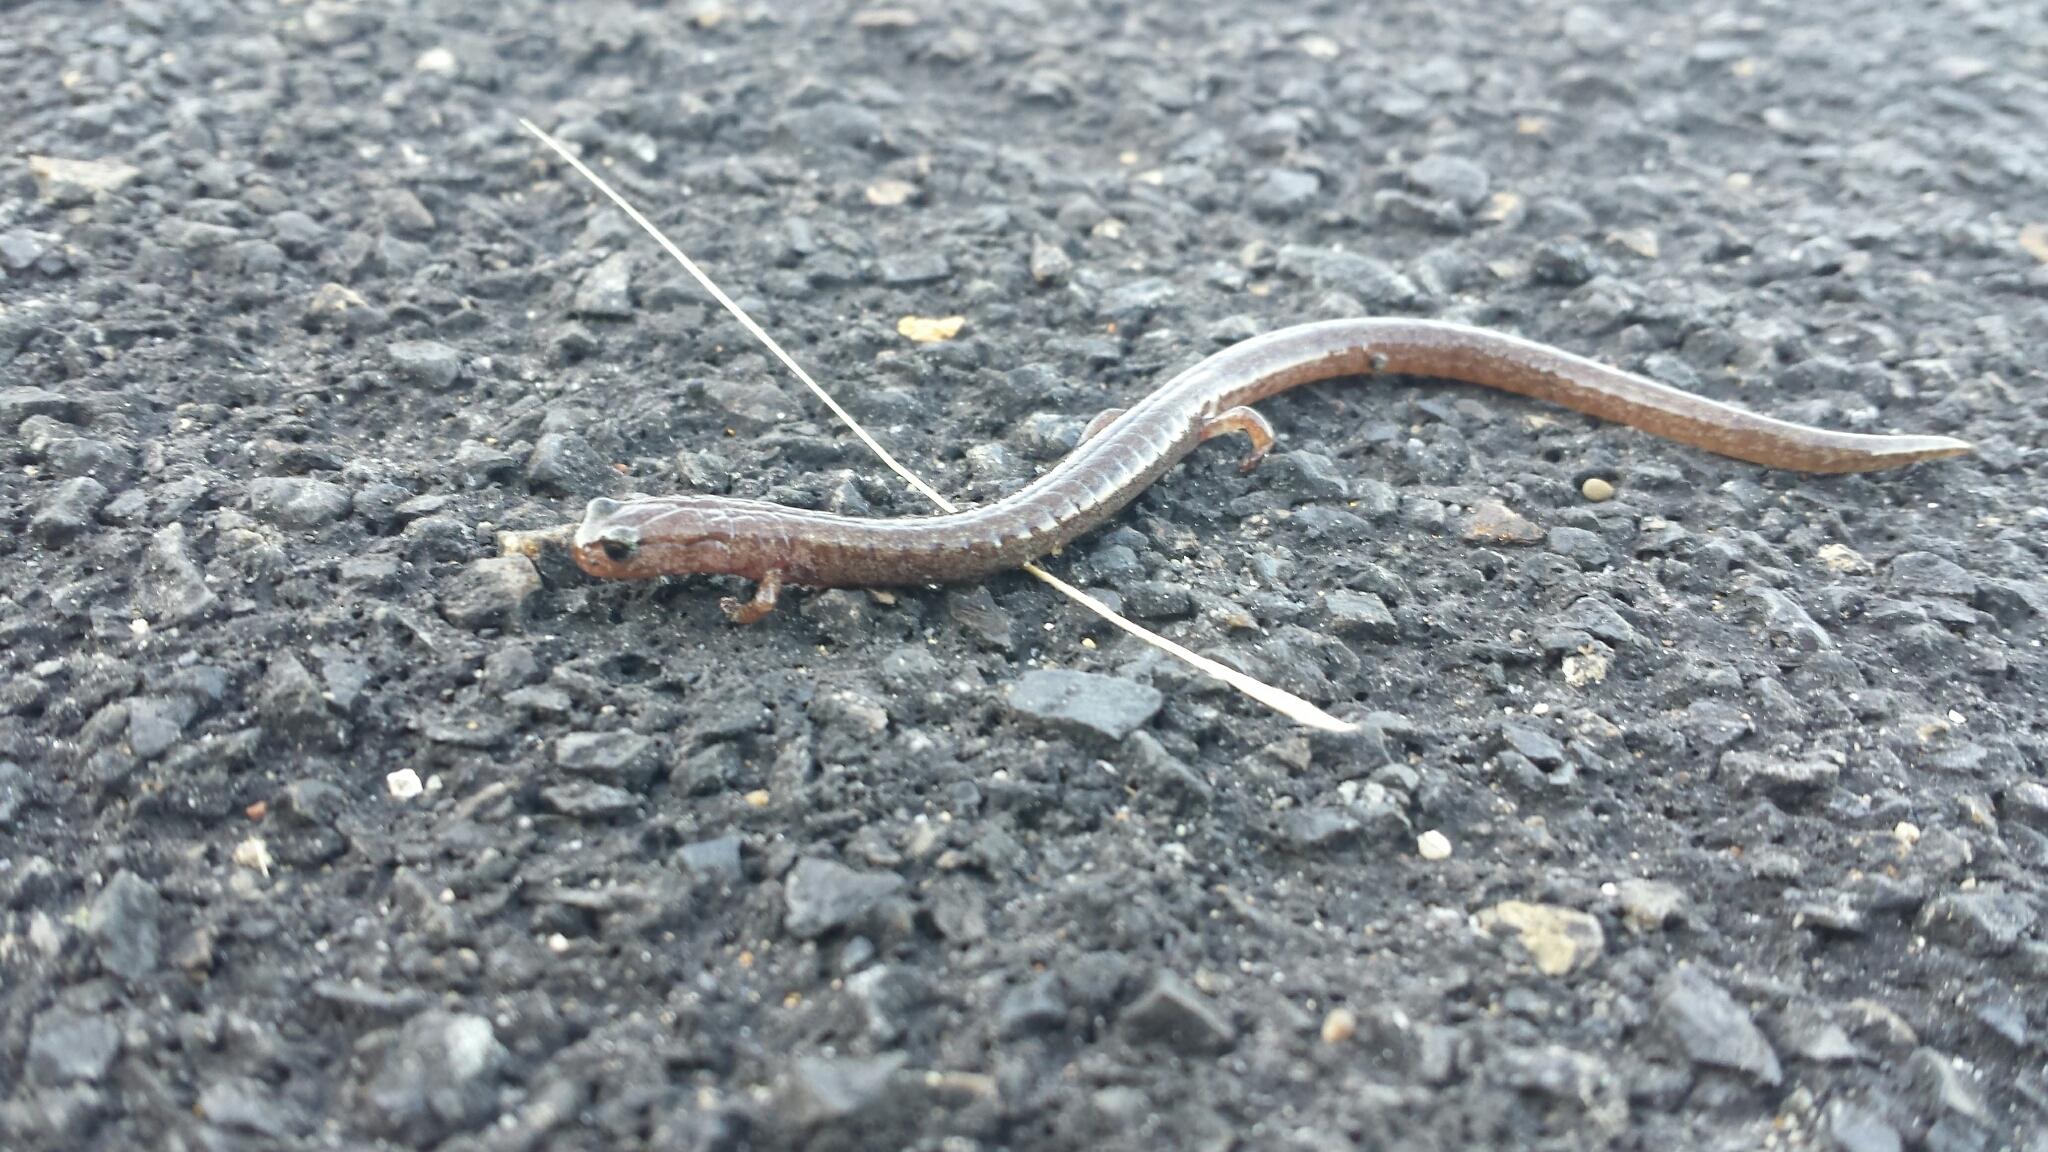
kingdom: Animalia
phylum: Chordata
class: Amphibia
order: Caudata
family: Plethodontidae
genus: Batrachoseps
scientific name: Batrachoseps attenuatus
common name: California slender salamander
